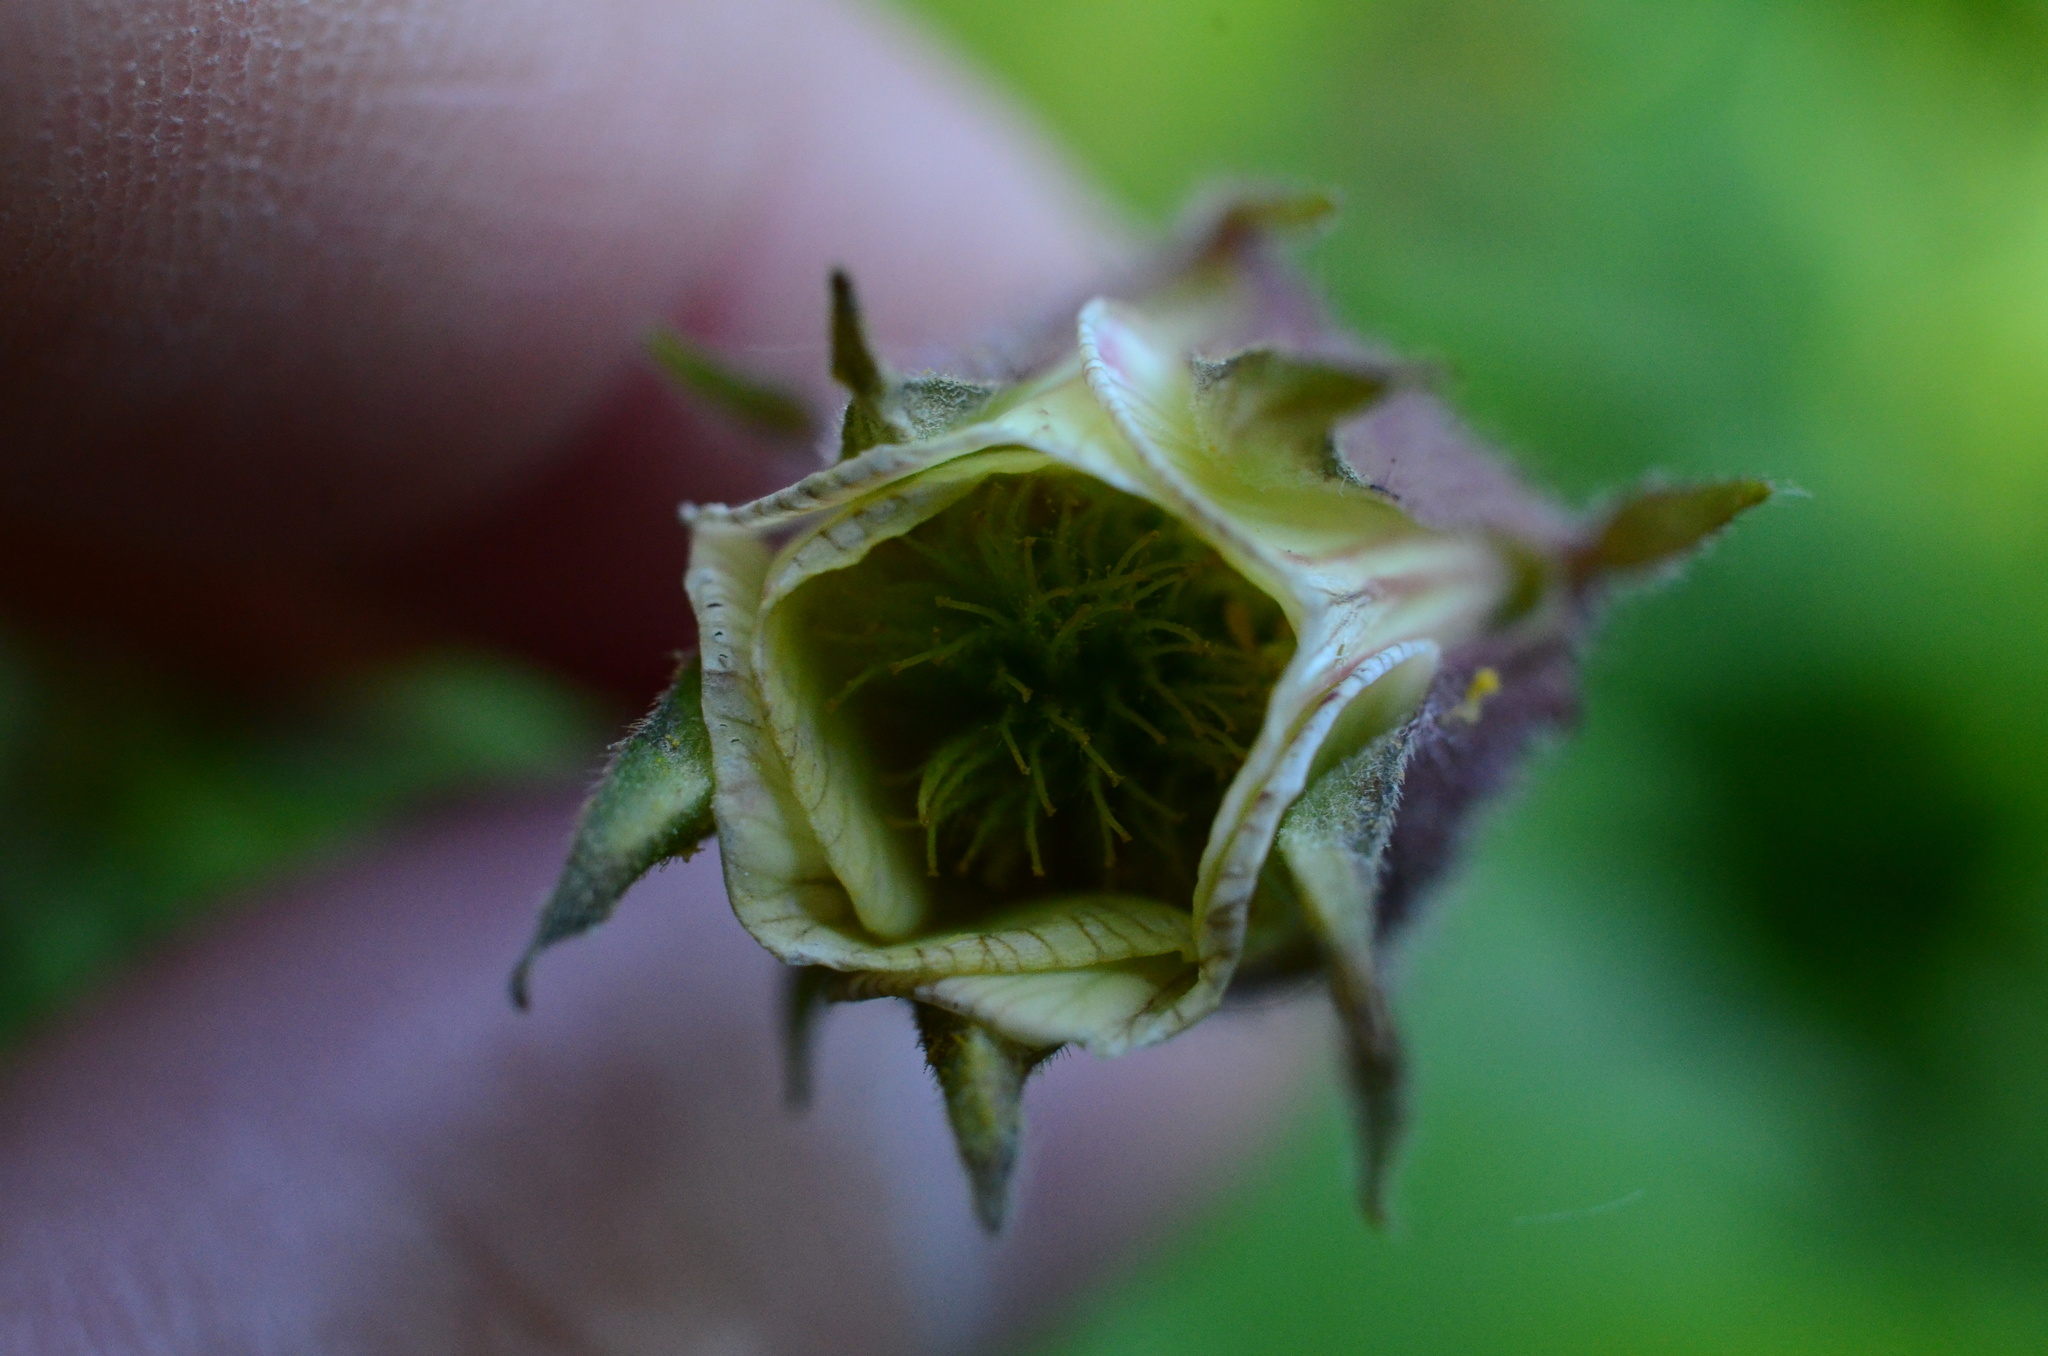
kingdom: Plantae
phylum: Tracheophyta
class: Magnoliopsida
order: Rosales
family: Rosaceae
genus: Geum
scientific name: Geum rivale
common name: Water avens
